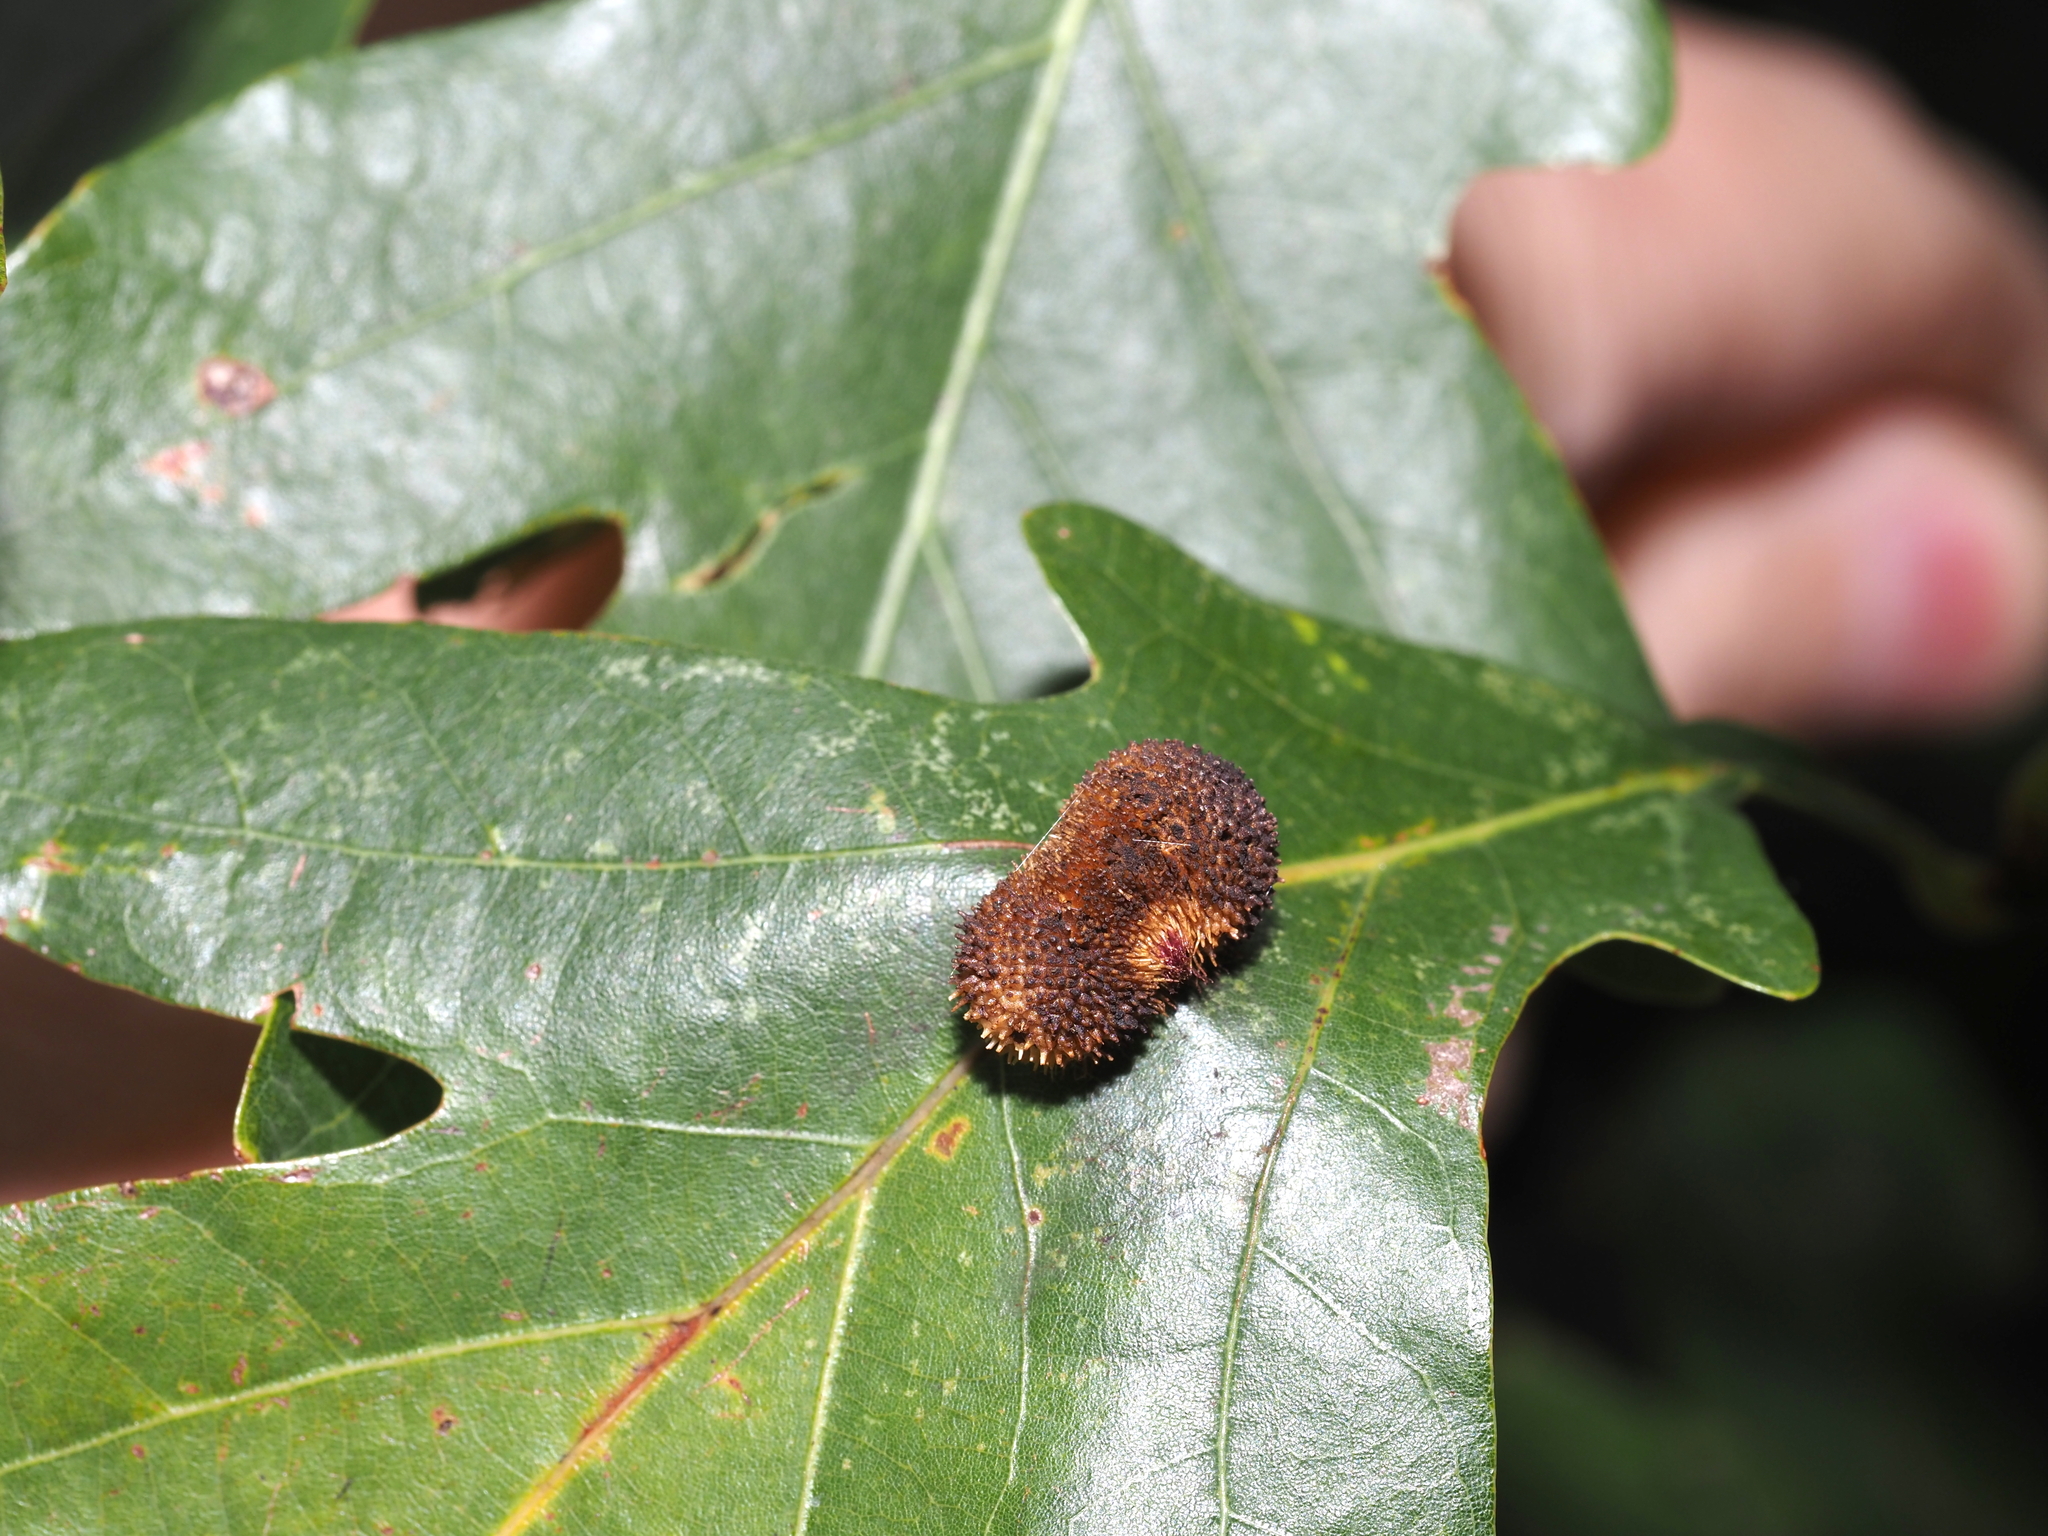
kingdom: Animalia
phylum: Arthropoda
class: Insecta
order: Hymenoptera
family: Cynipidae
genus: Acraspis
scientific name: Acraspis erinacei
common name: Hedgehog gall wasp
